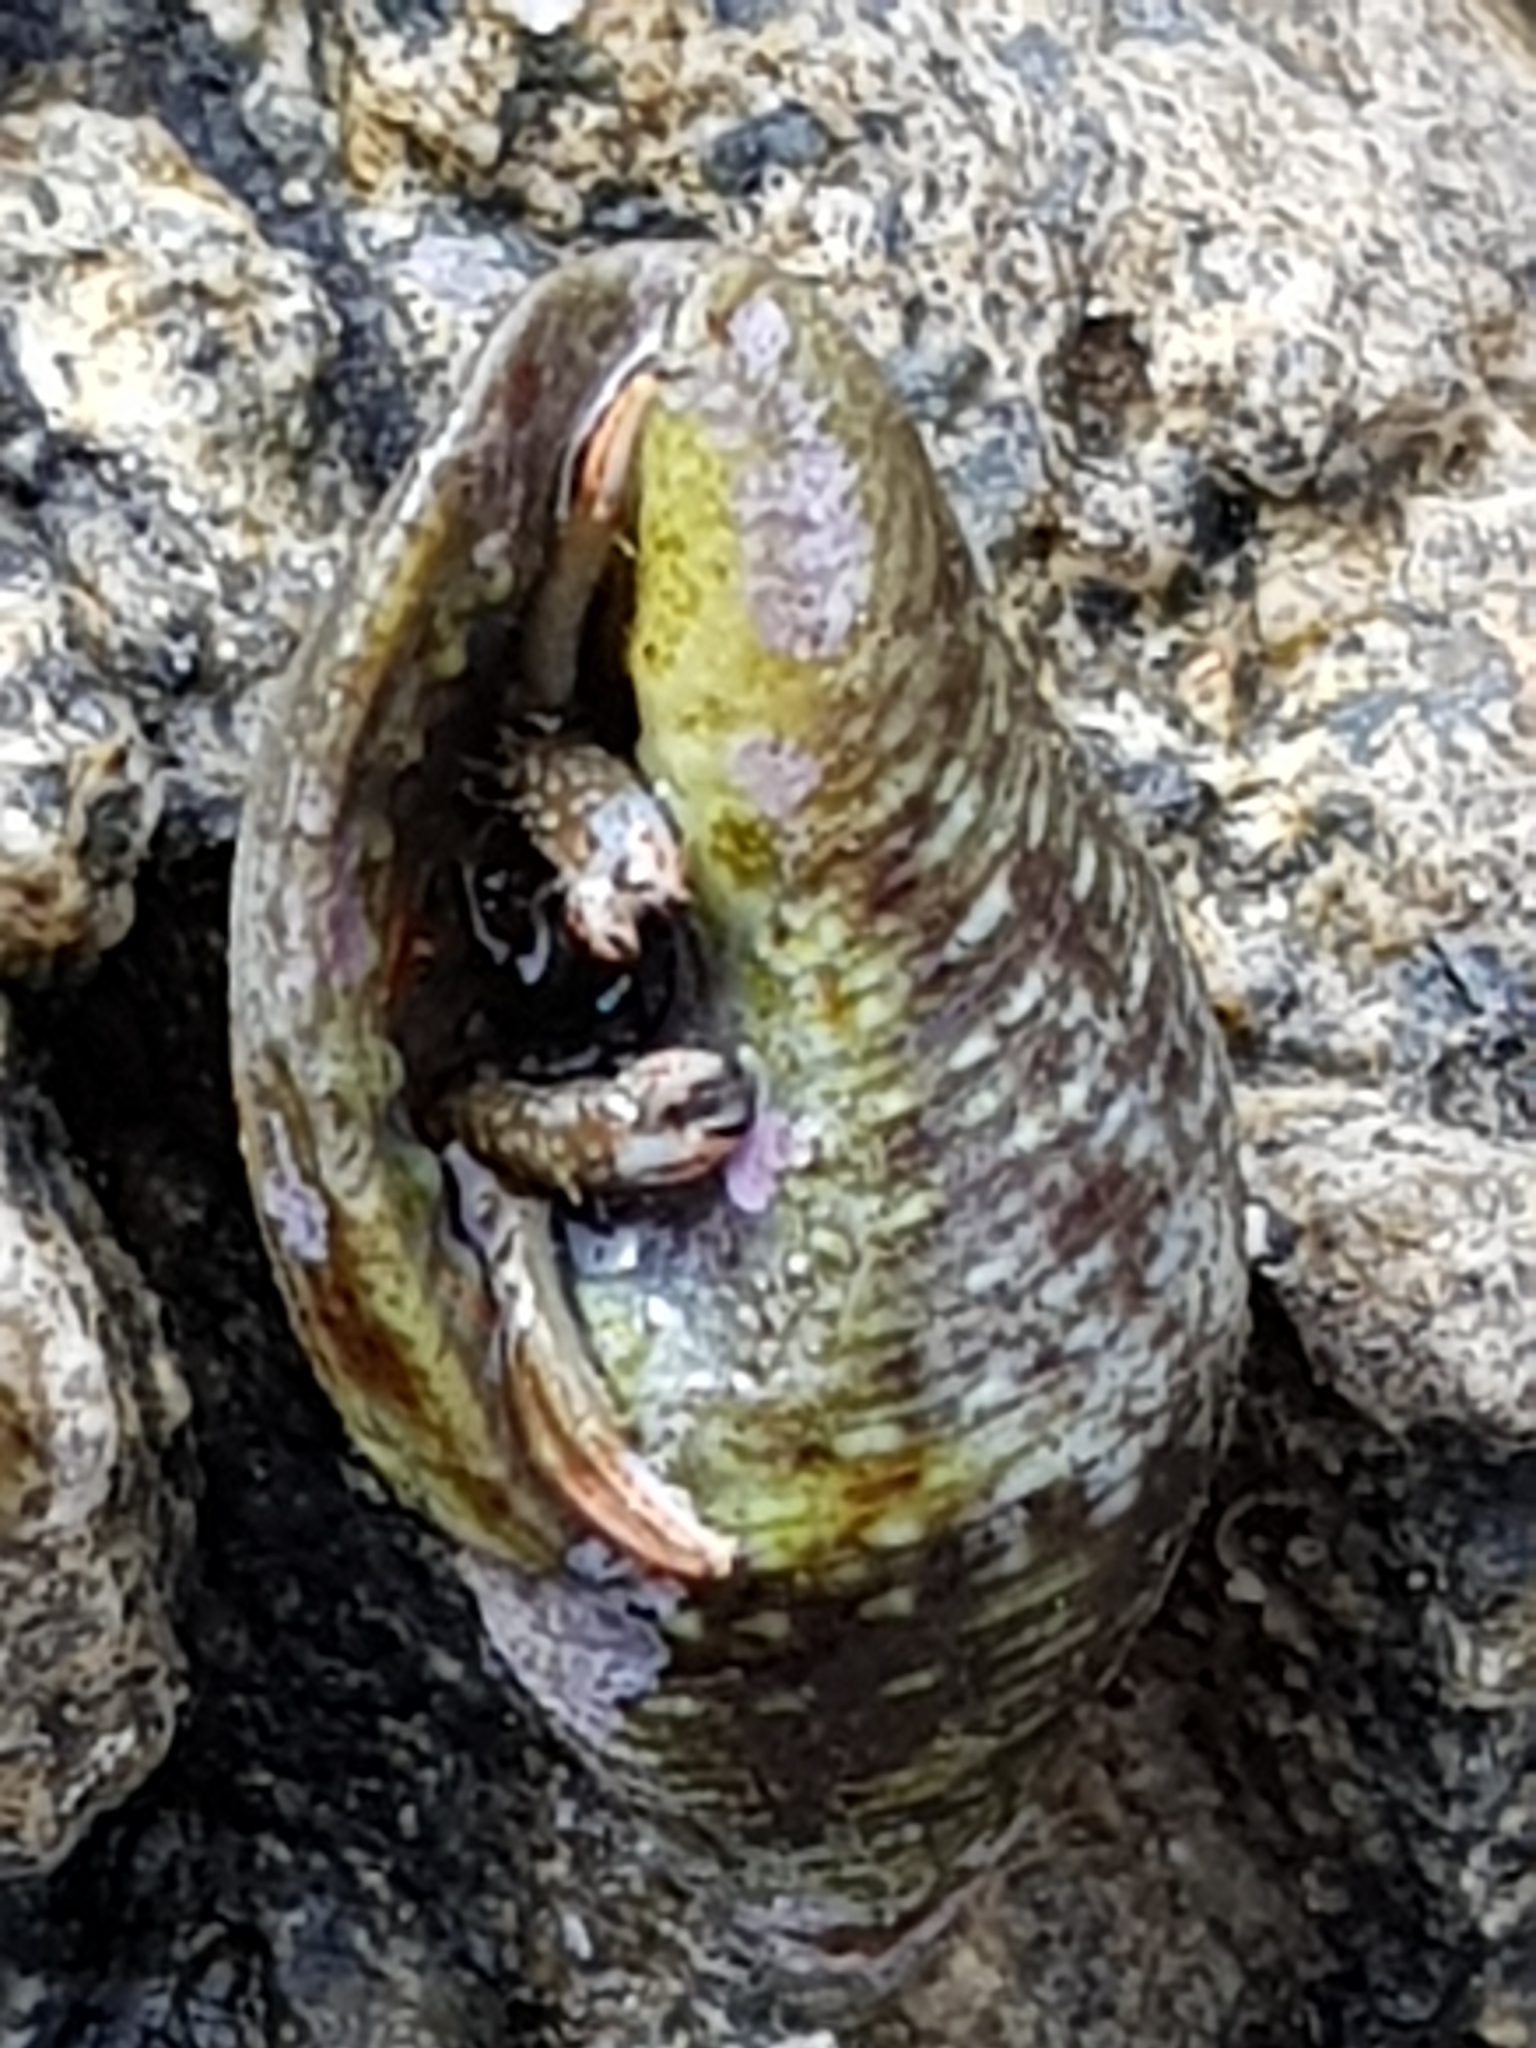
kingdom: Animalia
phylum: Mollusca
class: Gastropoda
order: Neogastropoda
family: Pisaniidae
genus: Pisania
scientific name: Pisania striata
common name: Spotted pisania
